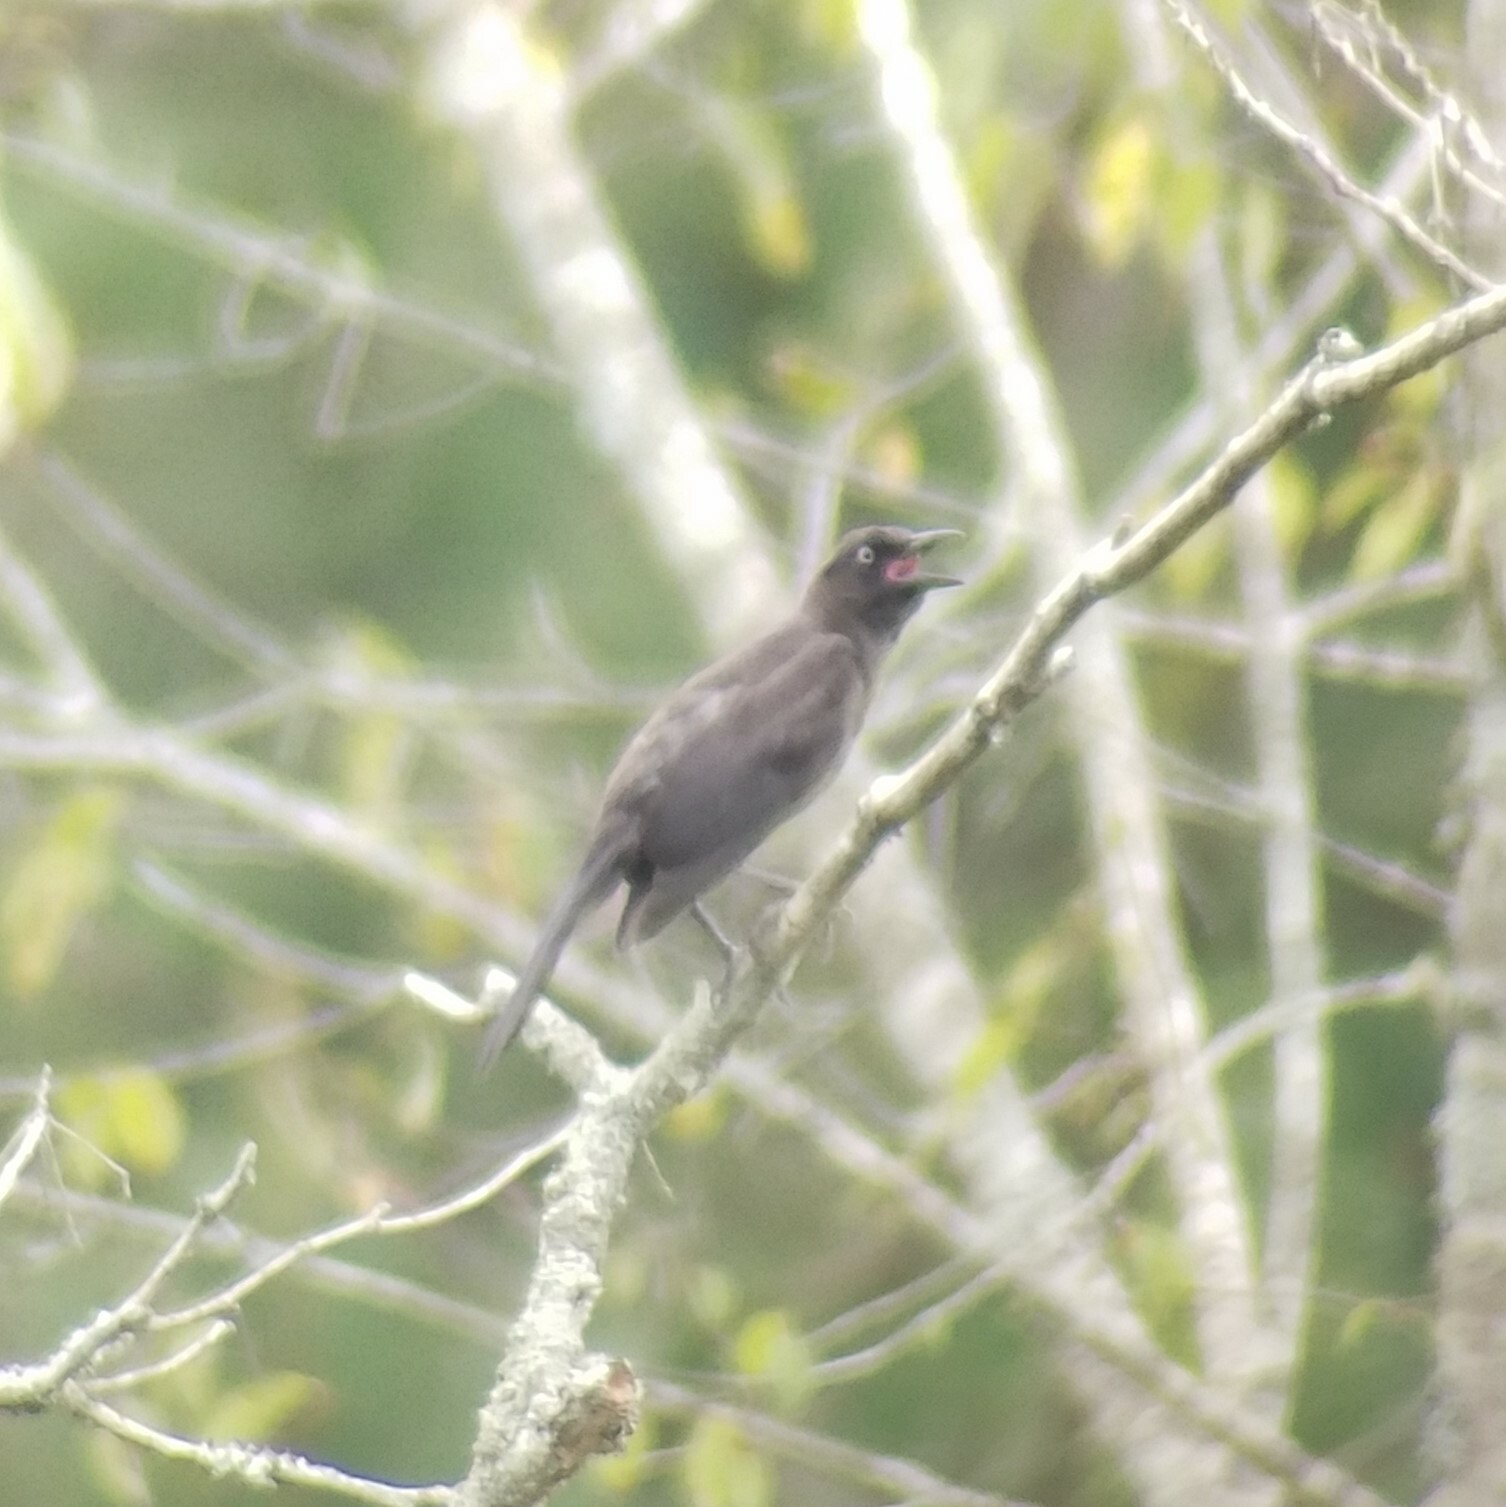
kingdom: Animalia
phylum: Chordata
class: Aves
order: Passeriformes
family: Icteridae
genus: Quiscalus
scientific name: Quiscalus quiscula
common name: Common grackle
